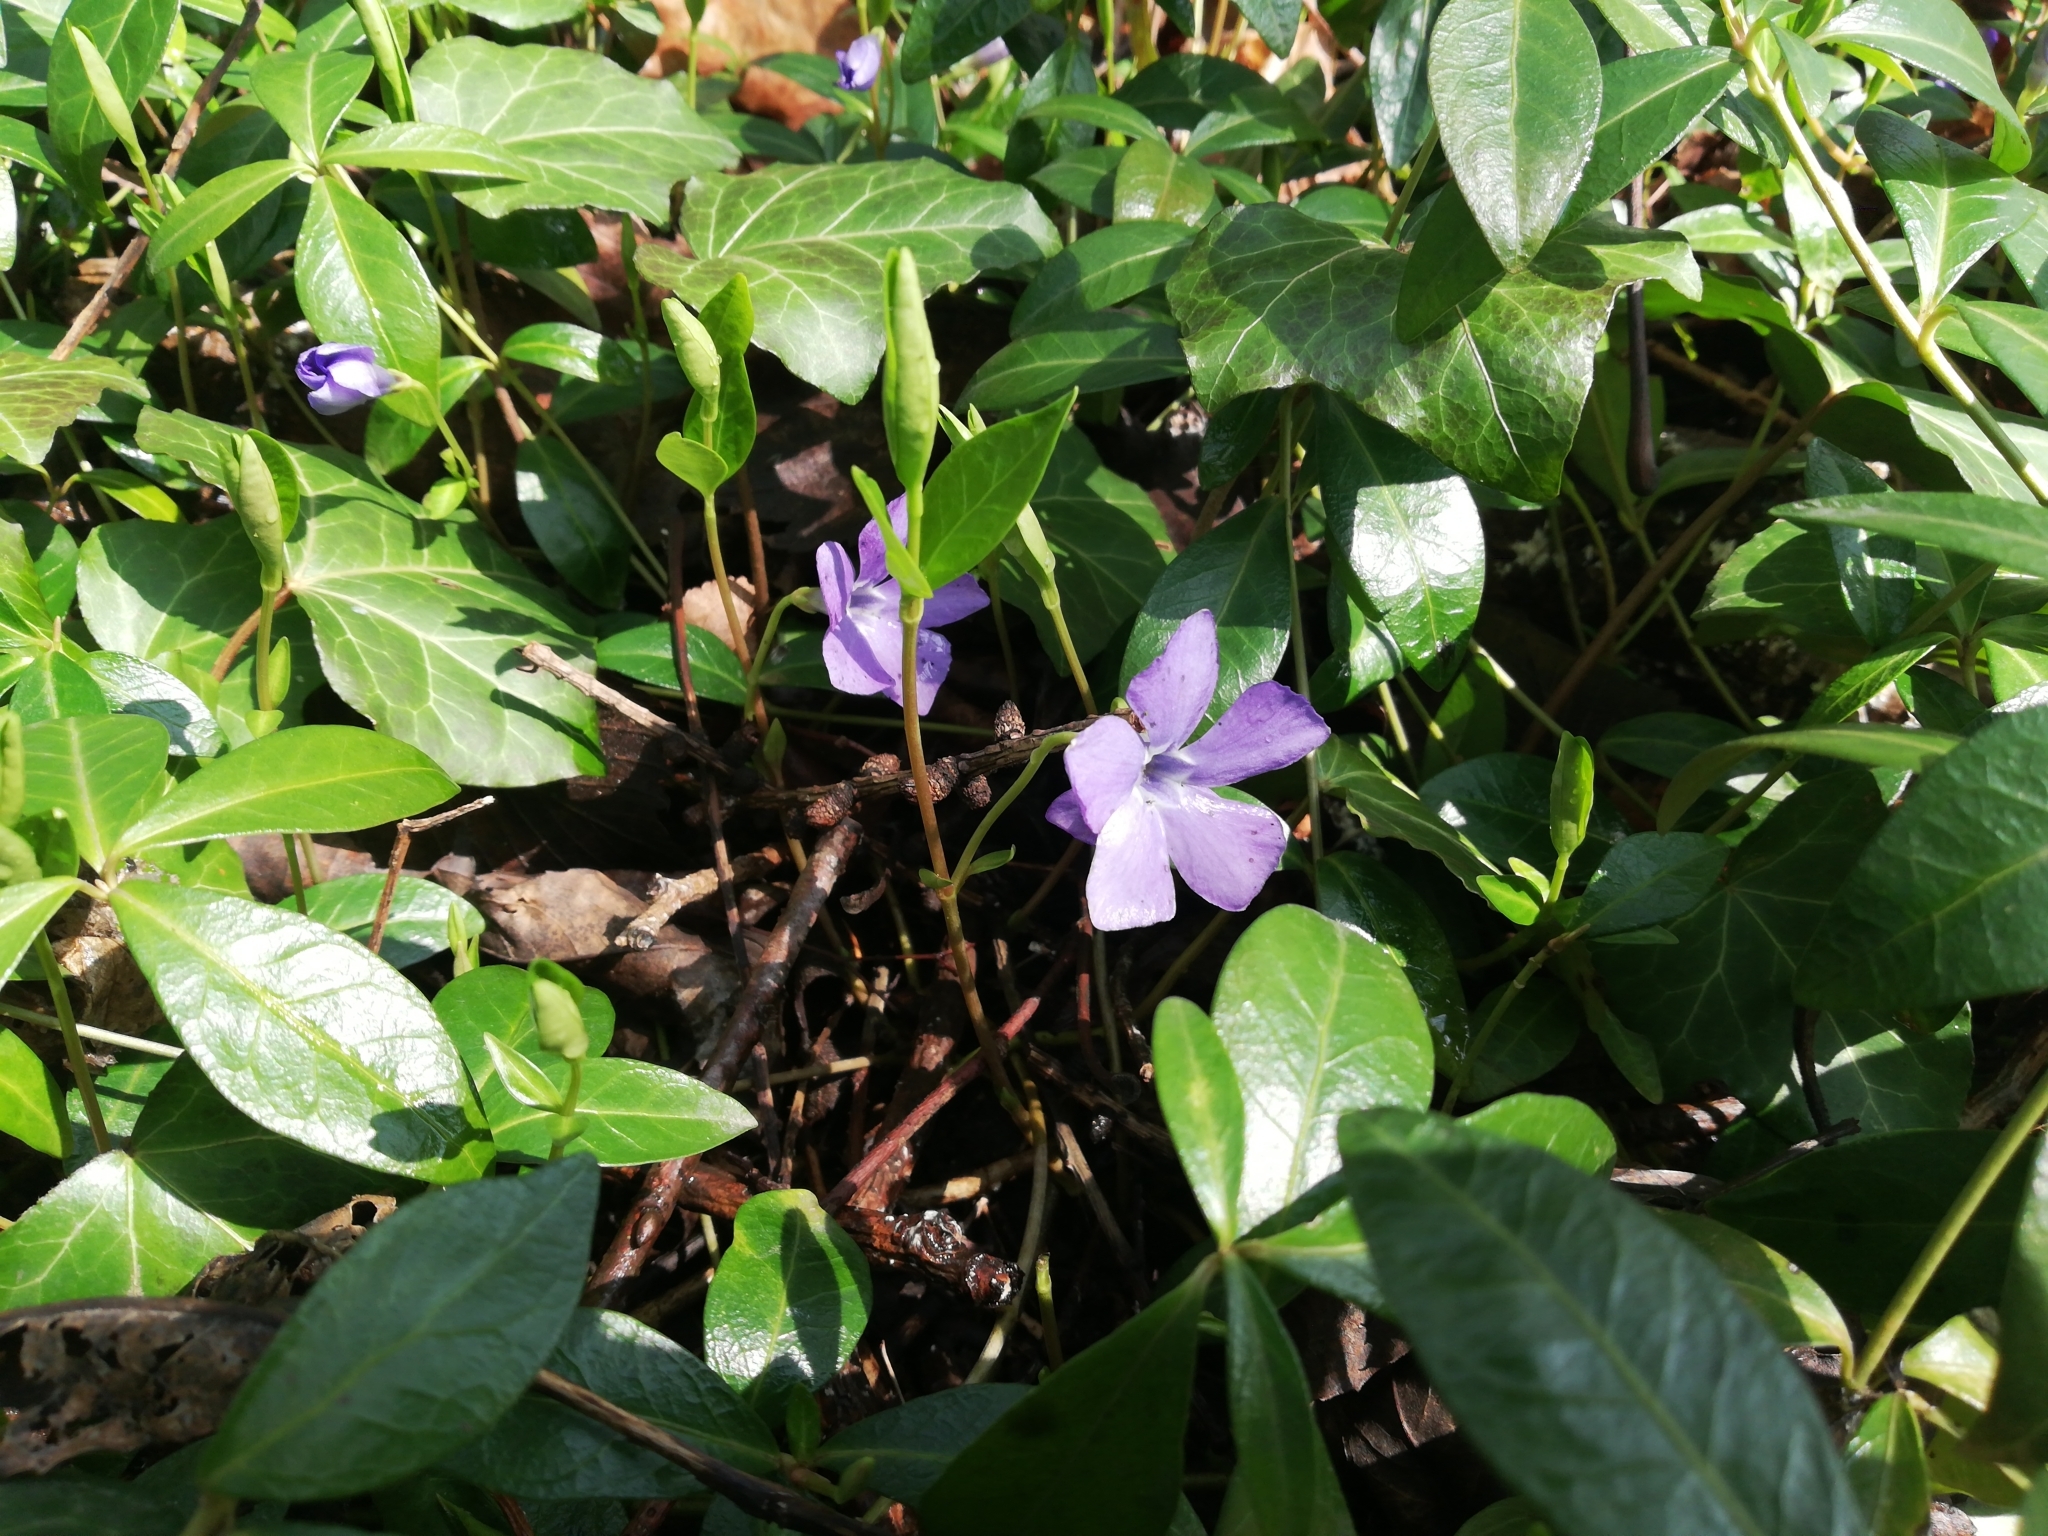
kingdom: Plantae
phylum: Tracheophyta
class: Magnoliopsida
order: Gentianales
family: Apocynaceae
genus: Vinca
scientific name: Vinca minor
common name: Lesser periwinkle
